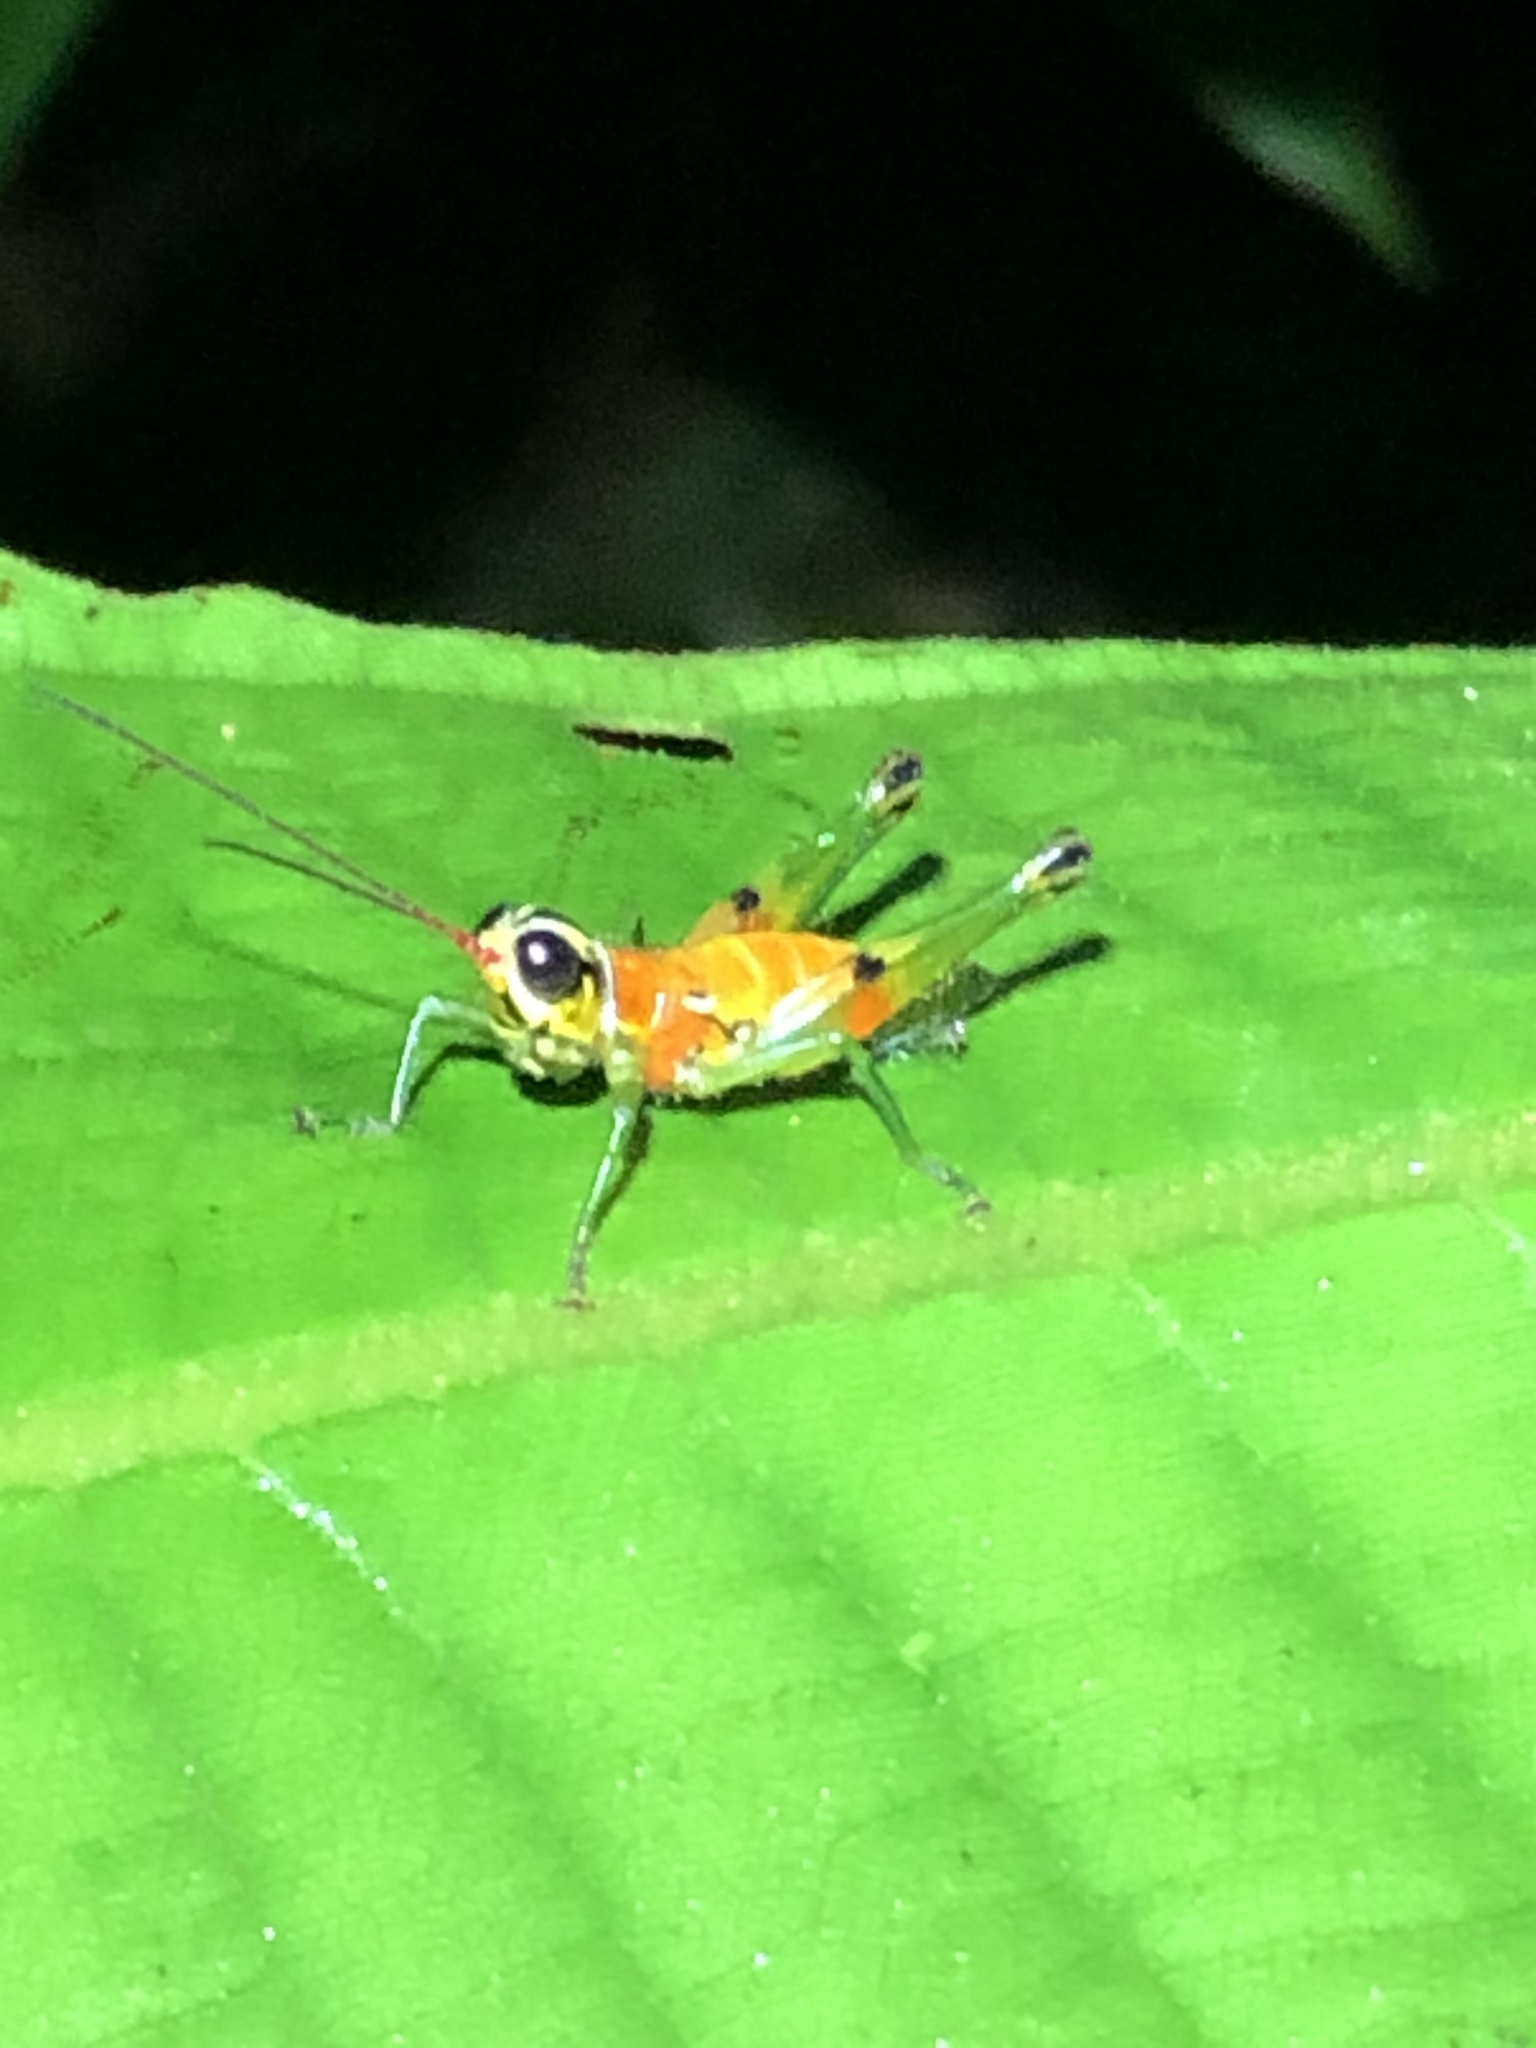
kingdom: Animalia
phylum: Arthropoda
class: Insecta
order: Orthoptera
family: Acrididae
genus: Contacris
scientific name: Contacris gemmea
